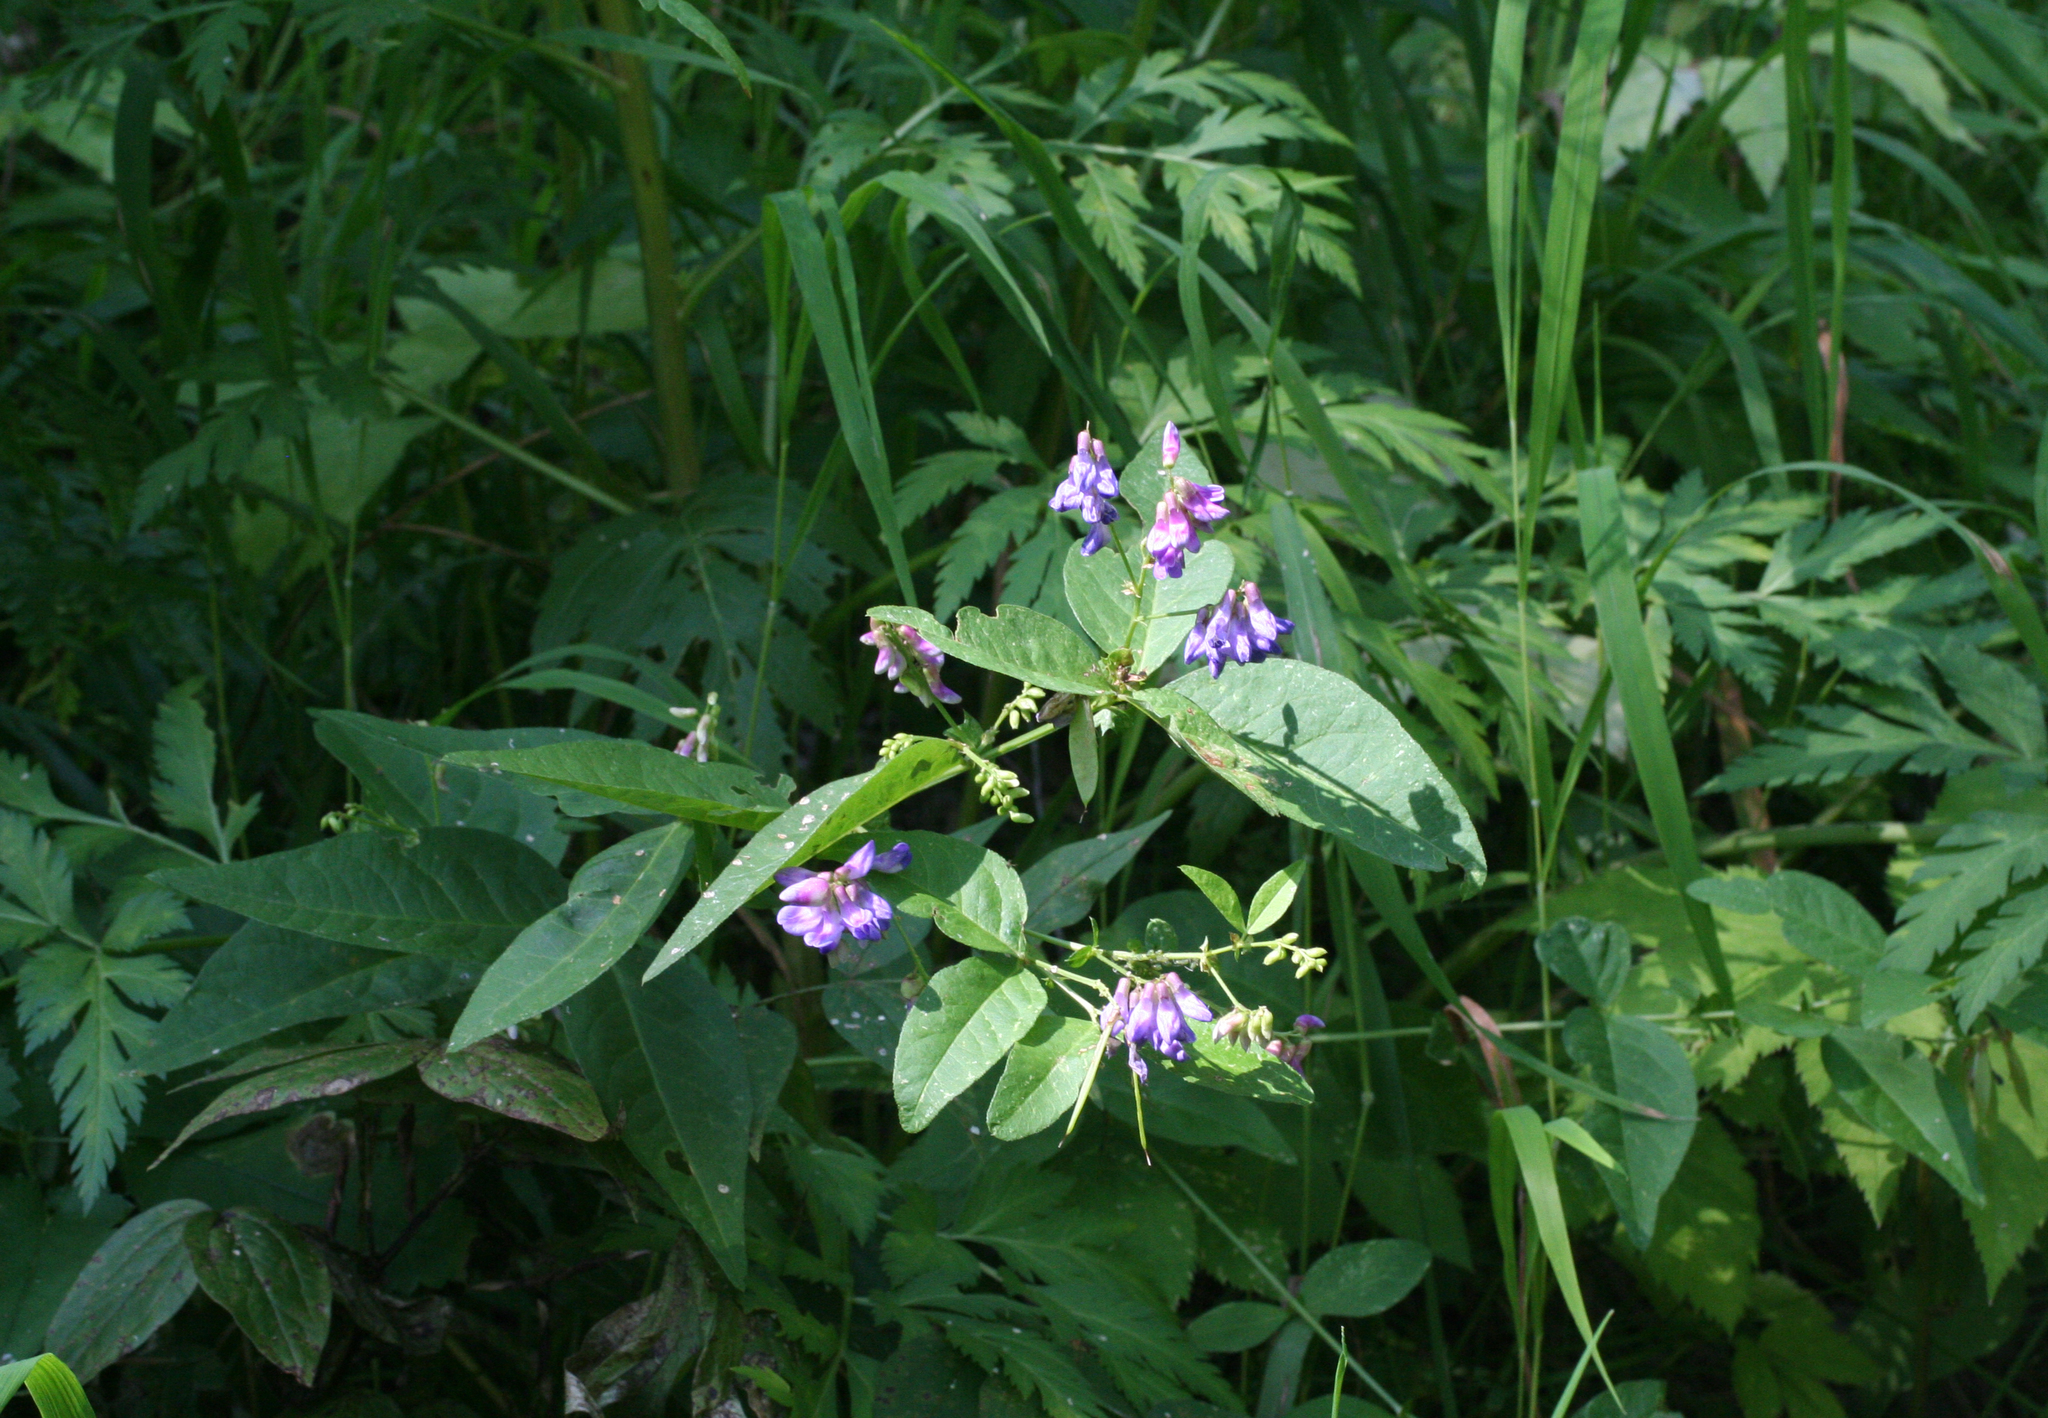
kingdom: Plantae
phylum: Tracheophyta
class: Magnoliopsida
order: Fabales
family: Fabaceae
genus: Vicia
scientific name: Vicia unijuga
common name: Two-leaf vetch
